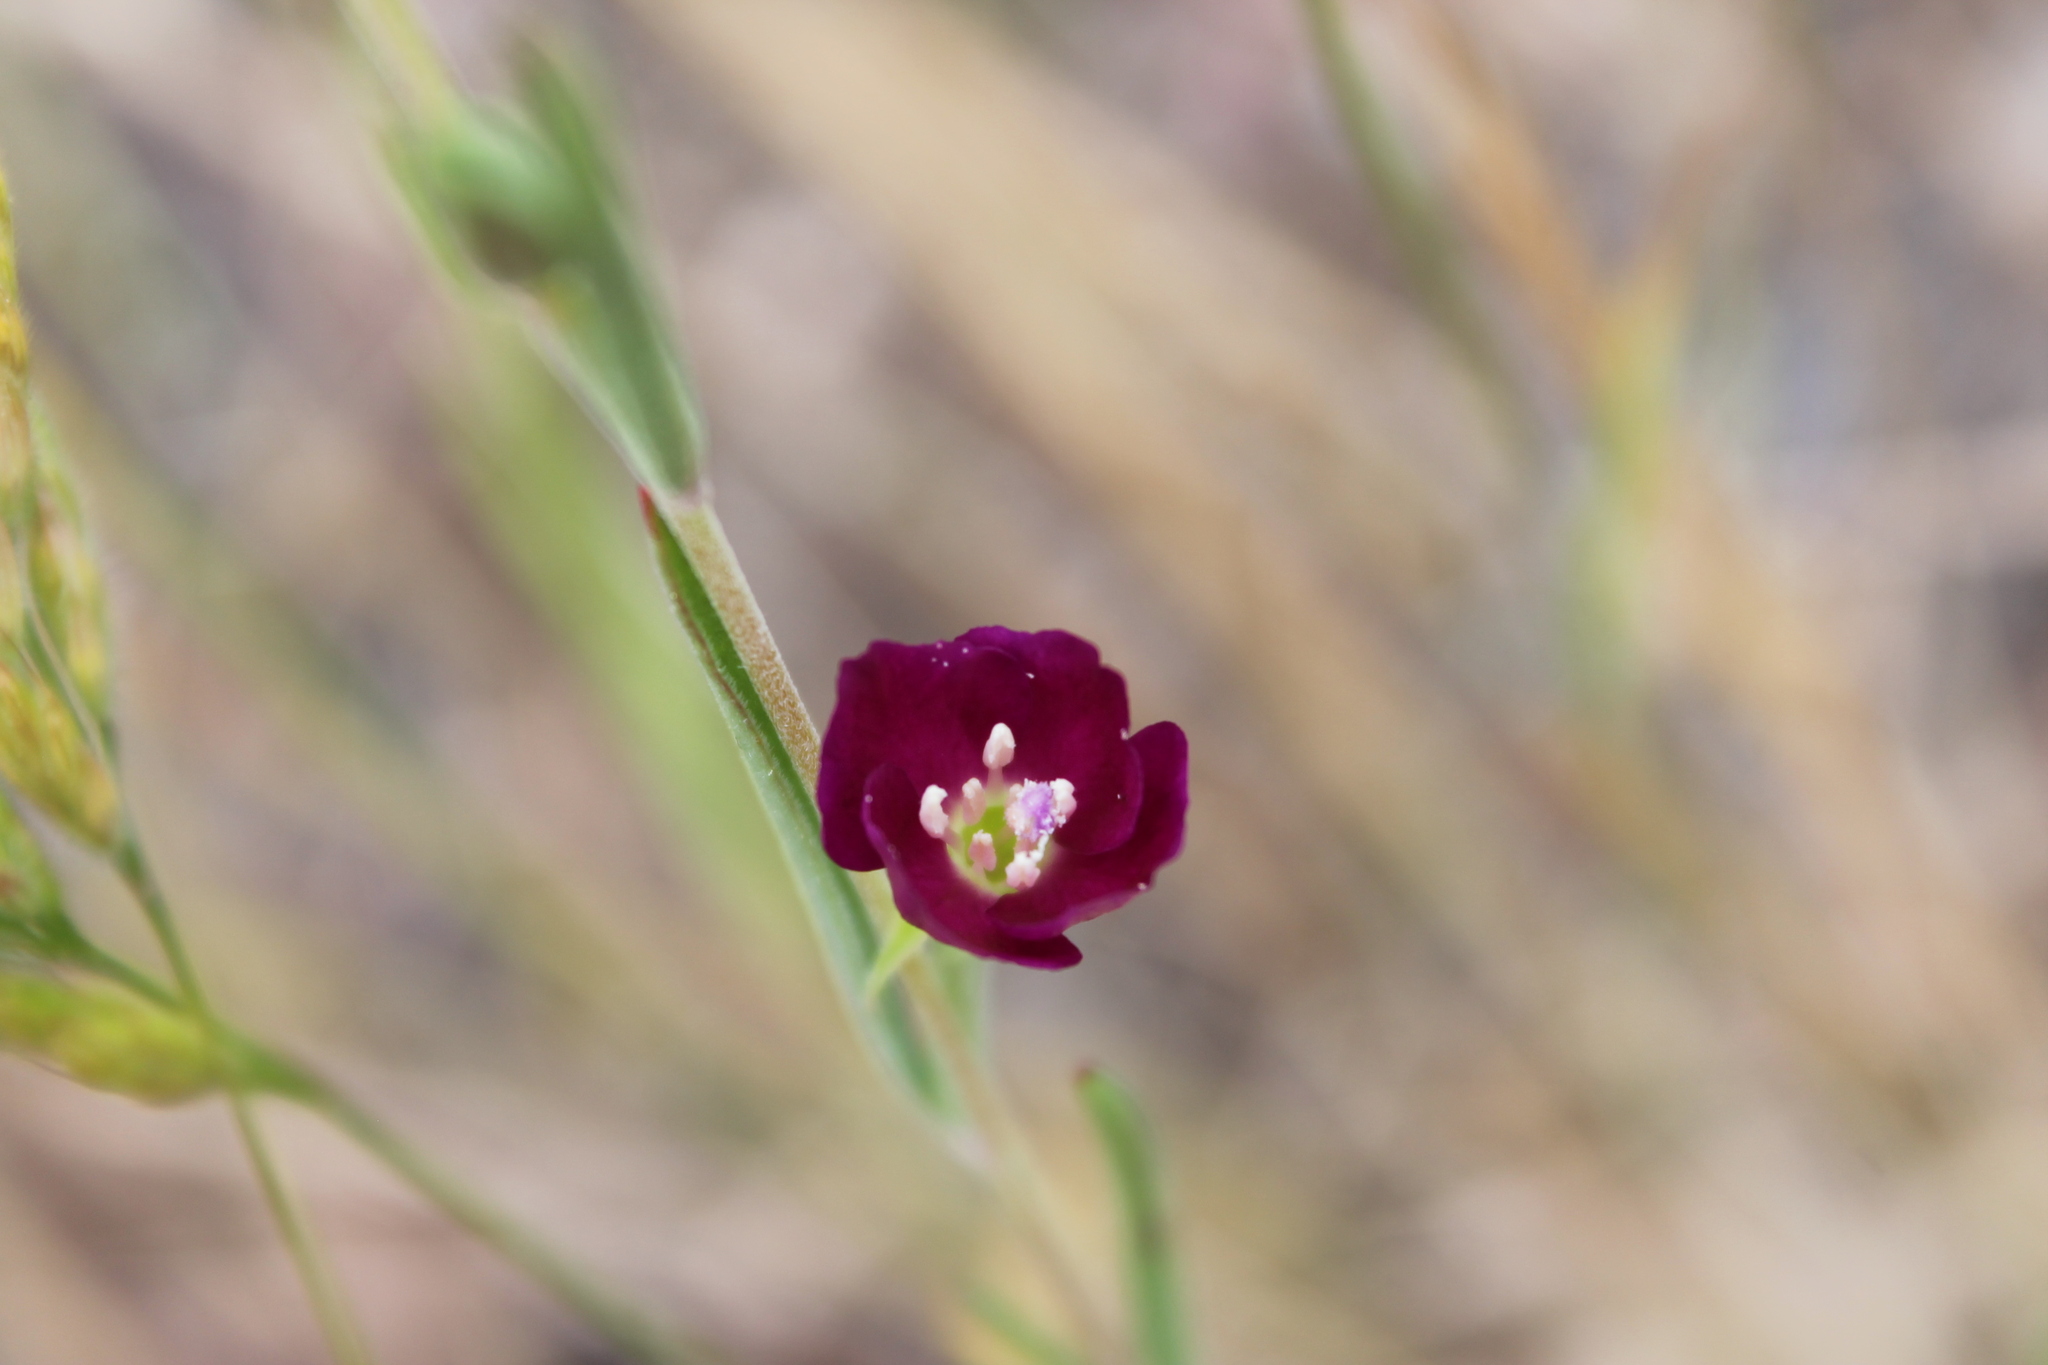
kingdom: Plantae
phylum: Tracheophyta
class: Magnoliopsida
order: Myrtales
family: Onagraceae
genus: Clarkia
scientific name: Clarkia purpurea
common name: Purple clarkia
